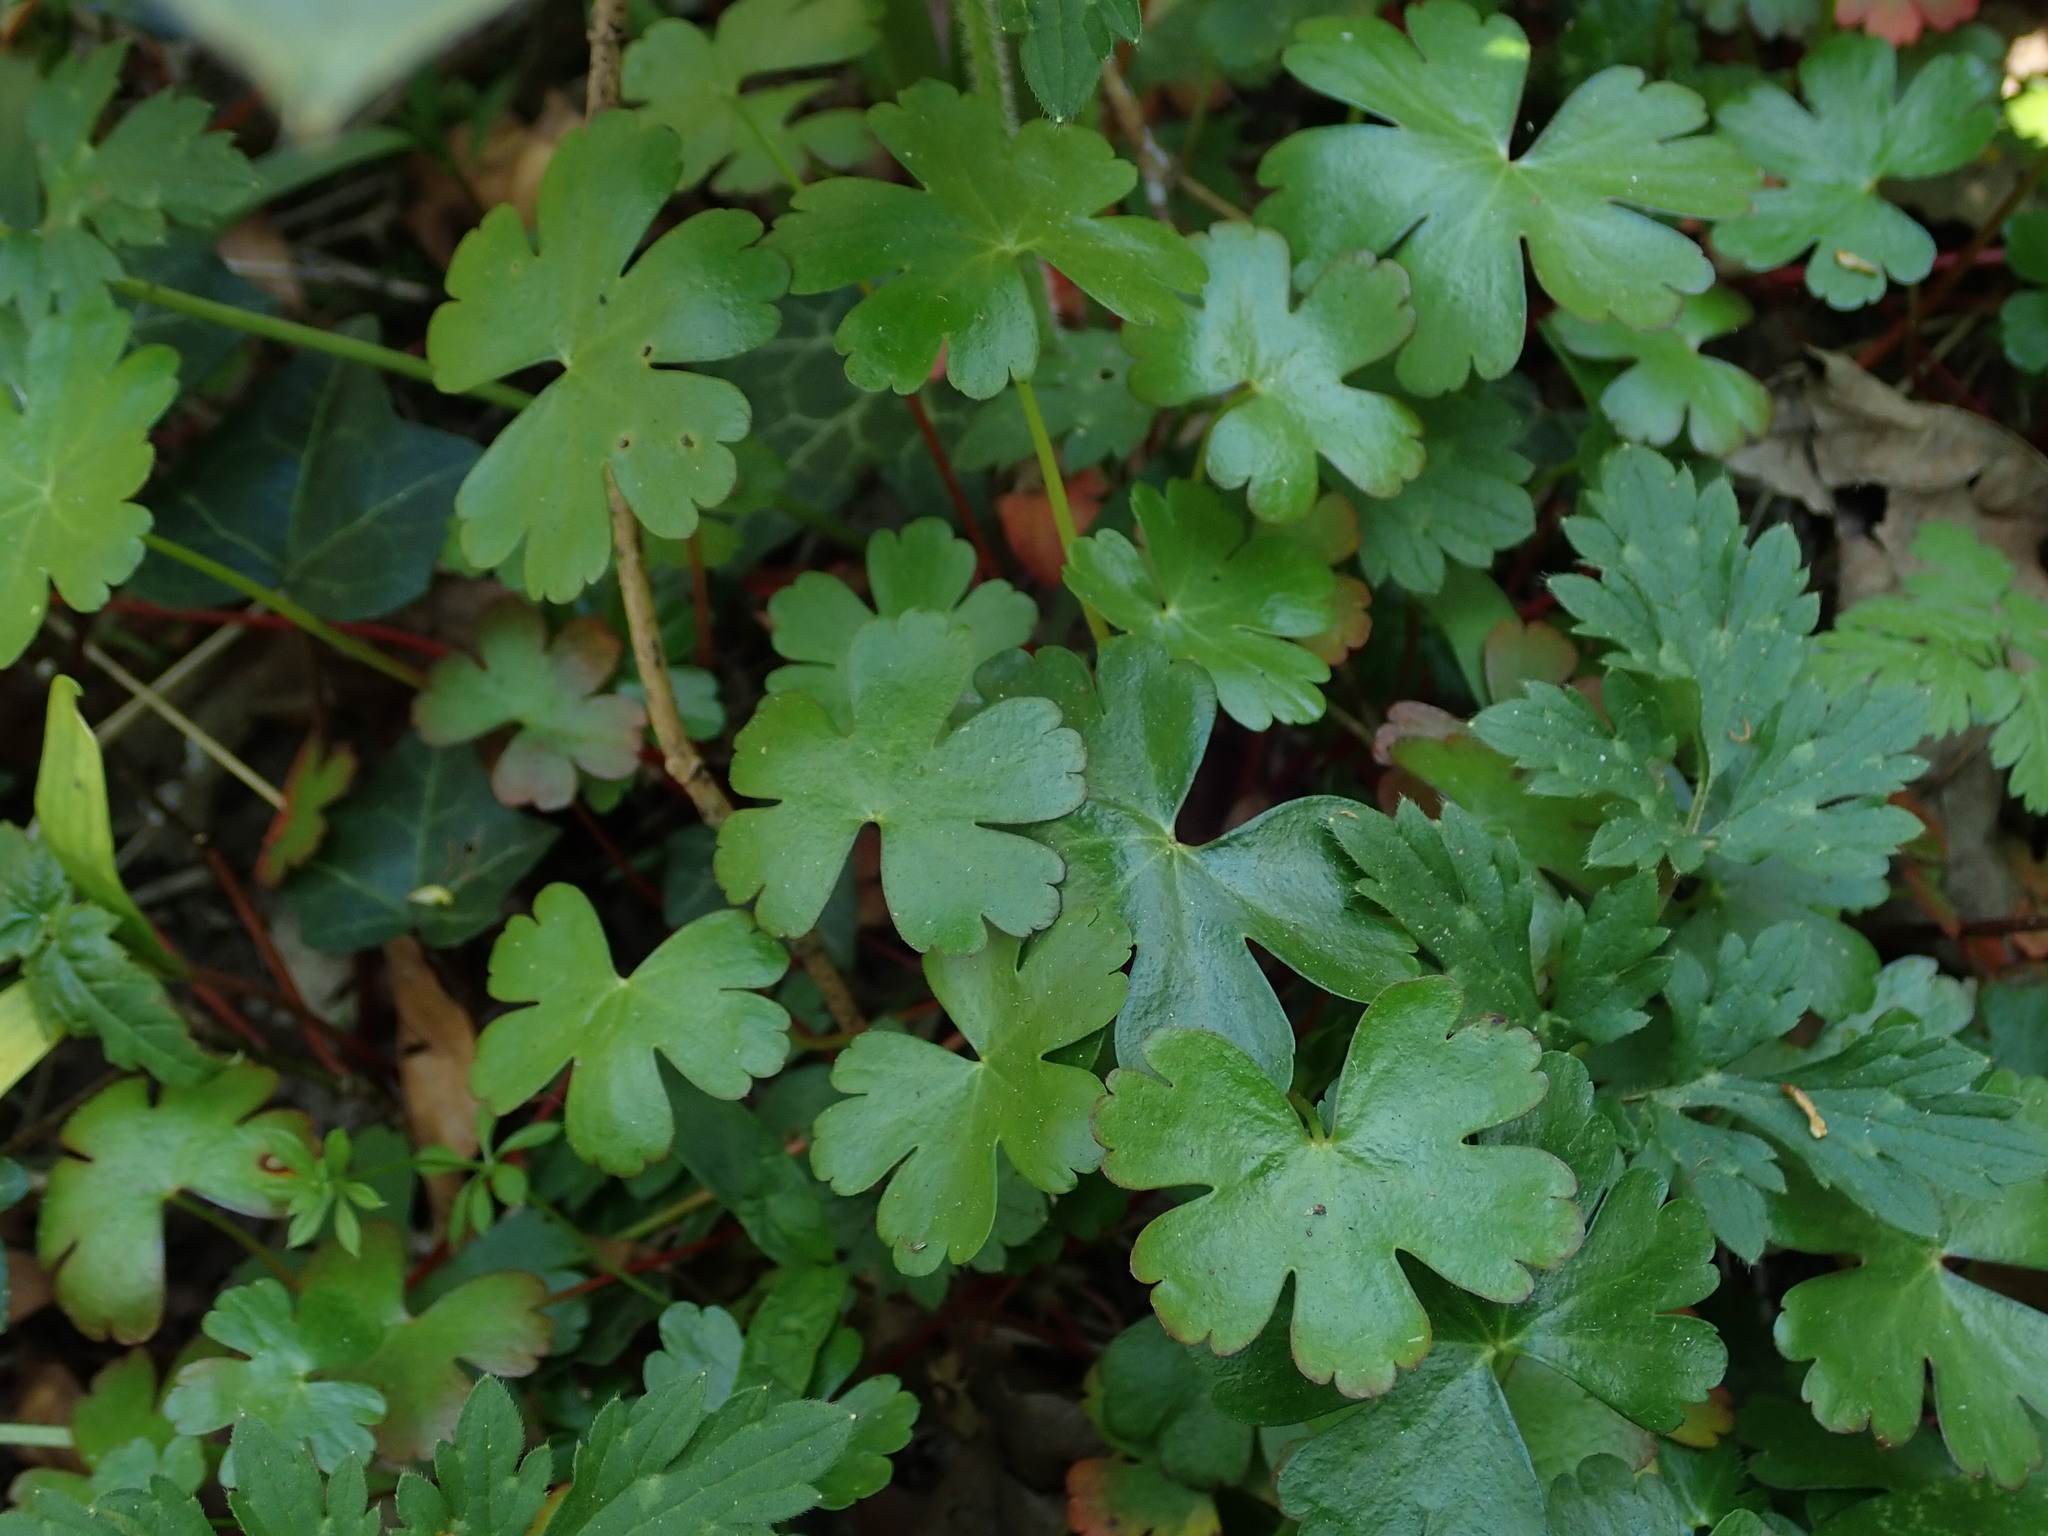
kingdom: Plantae
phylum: Tracheophyta
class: Magnoliopsida
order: Geraniales
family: Geraniaceae
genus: Geranium
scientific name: Geranium lucidum
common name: Shining crane's-bill
